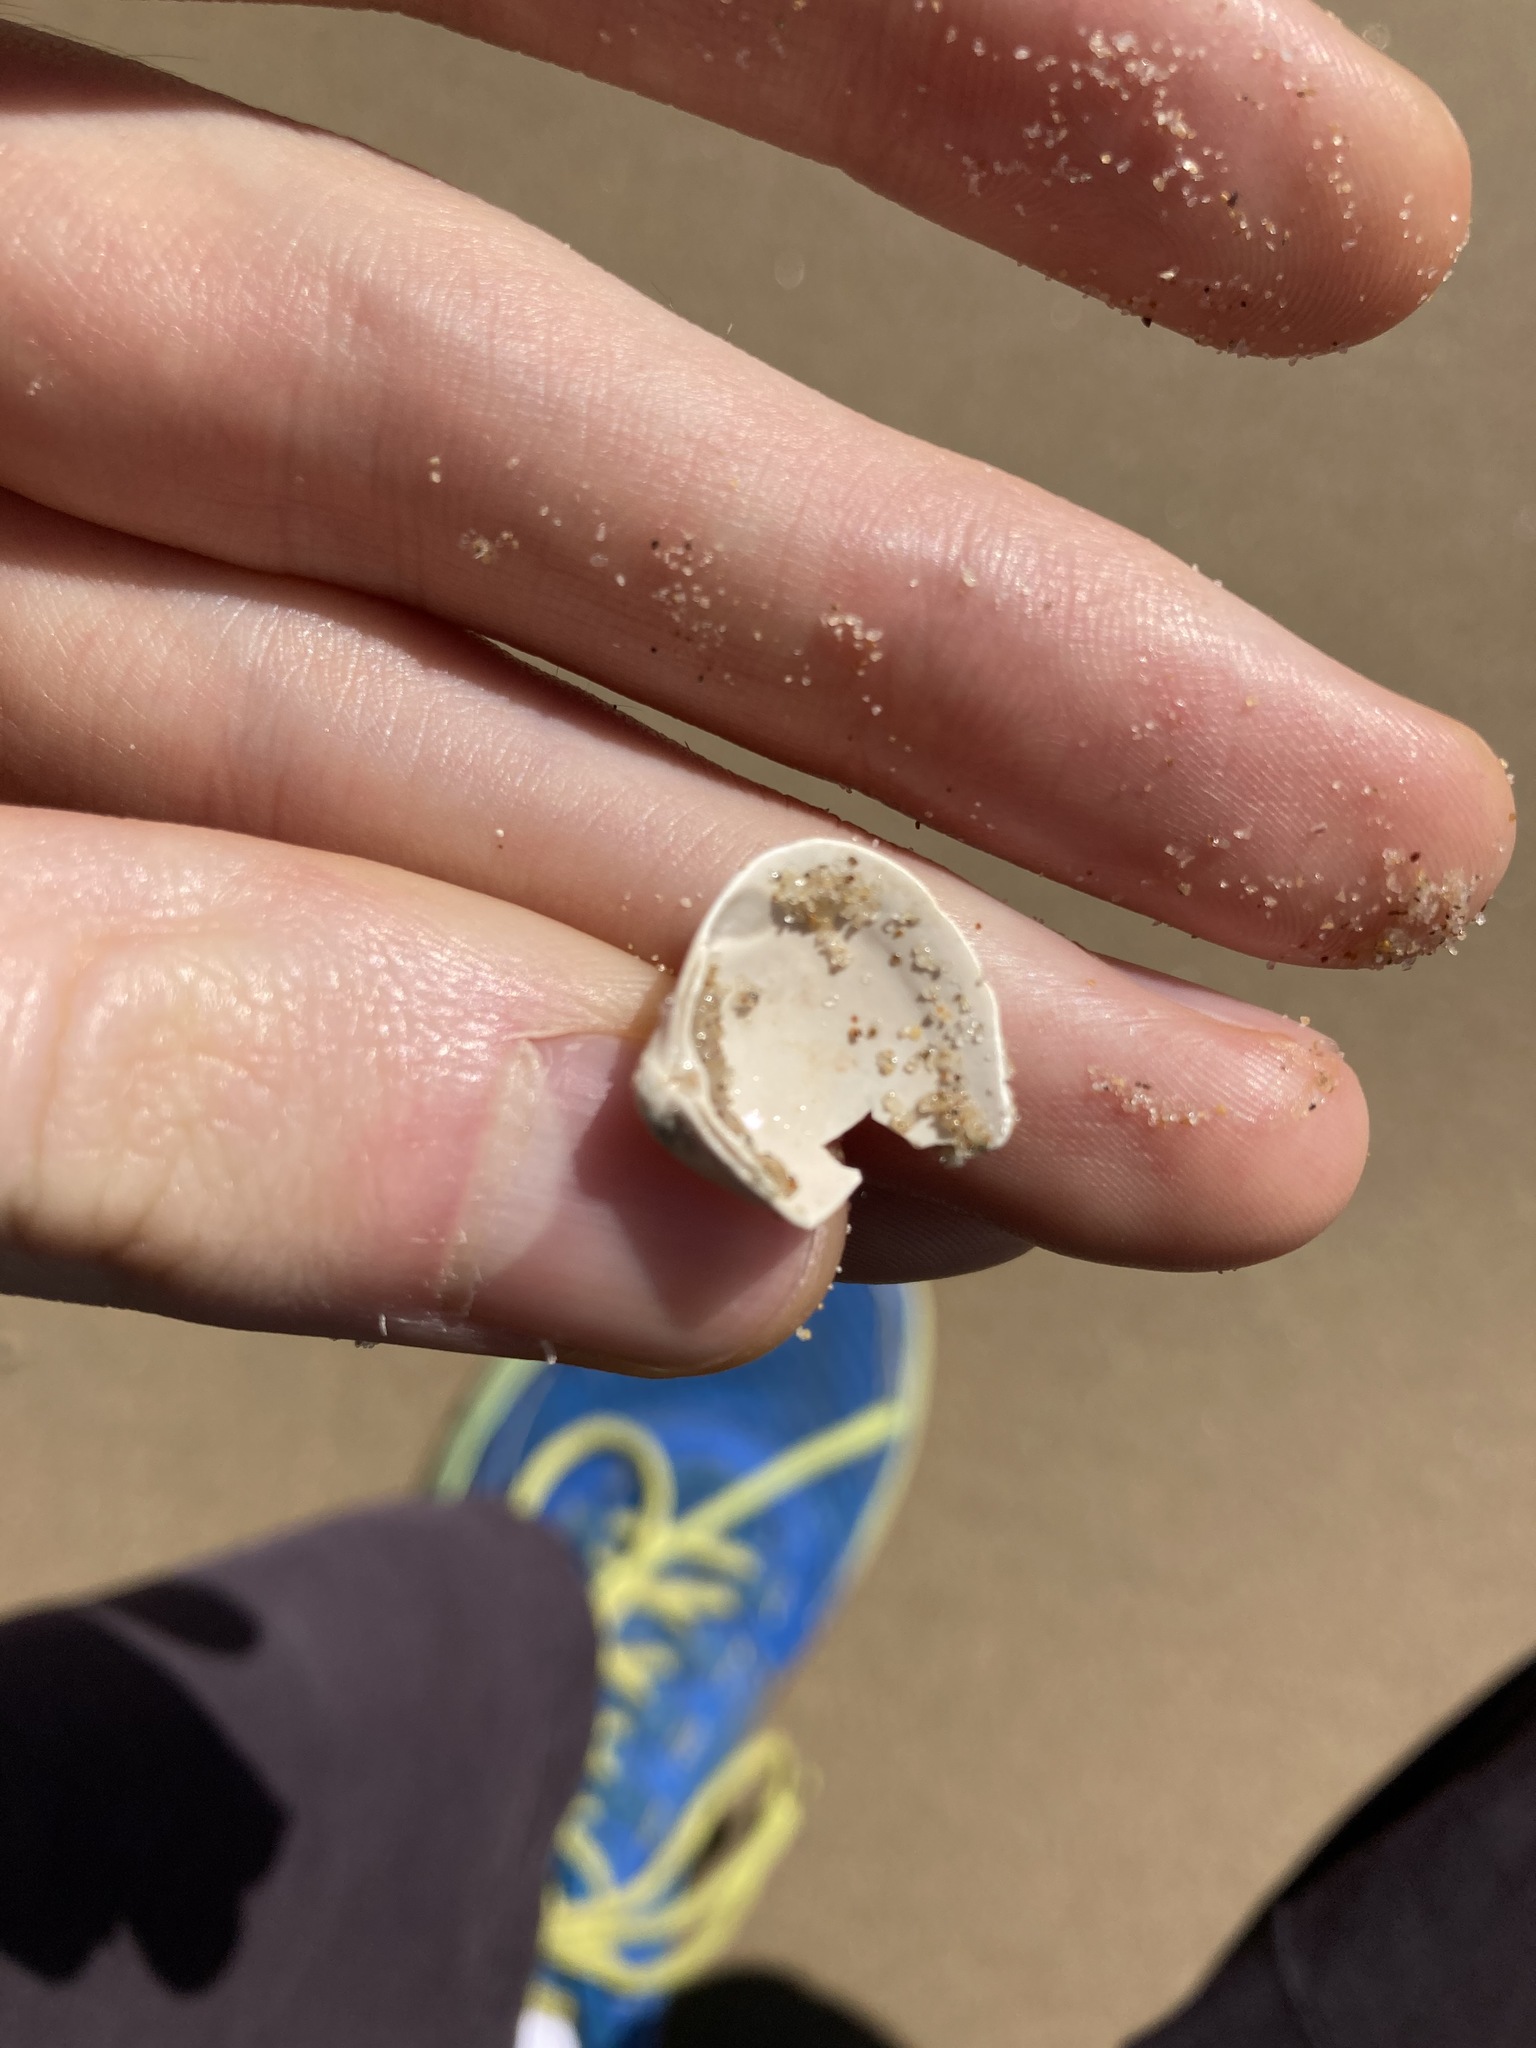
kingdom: Animalia
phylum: Mollusca
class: Bivalvia
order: Venerida
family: Mactridae
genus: Spisula
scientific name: Spisula trigonella
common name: Trigonal mactra
